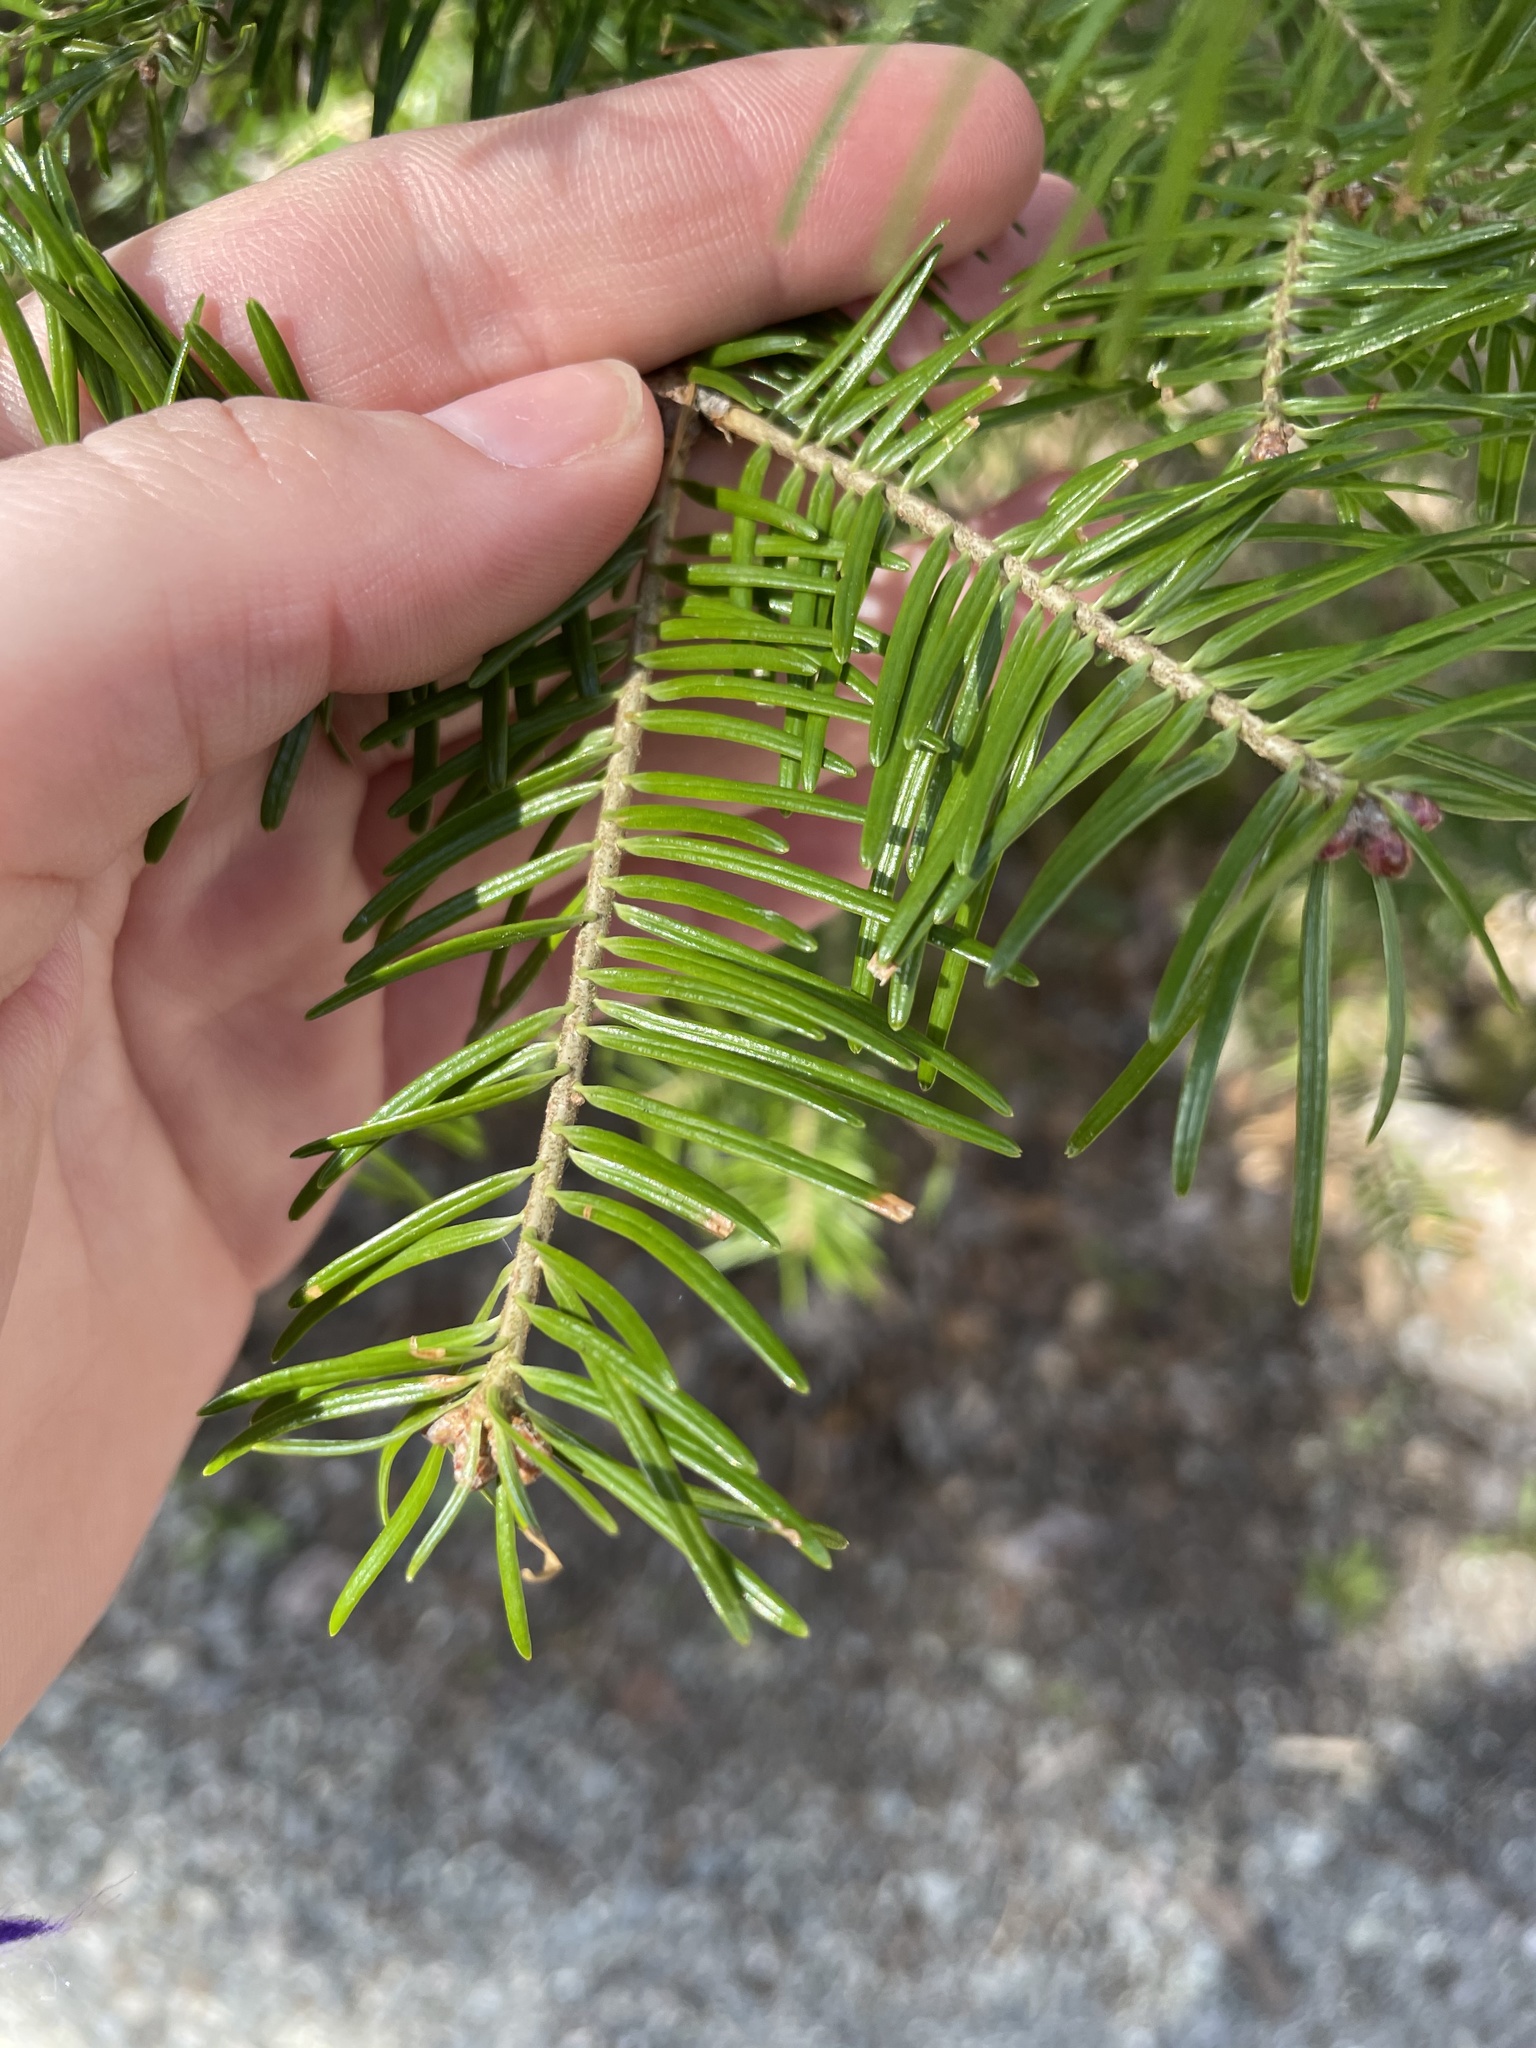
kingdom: Plantae
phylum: Tracheophyta
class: Pinopsida
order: Pinales
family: Pinaceae
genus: Abies
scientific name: Abies balsamea
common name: Balsam fir
